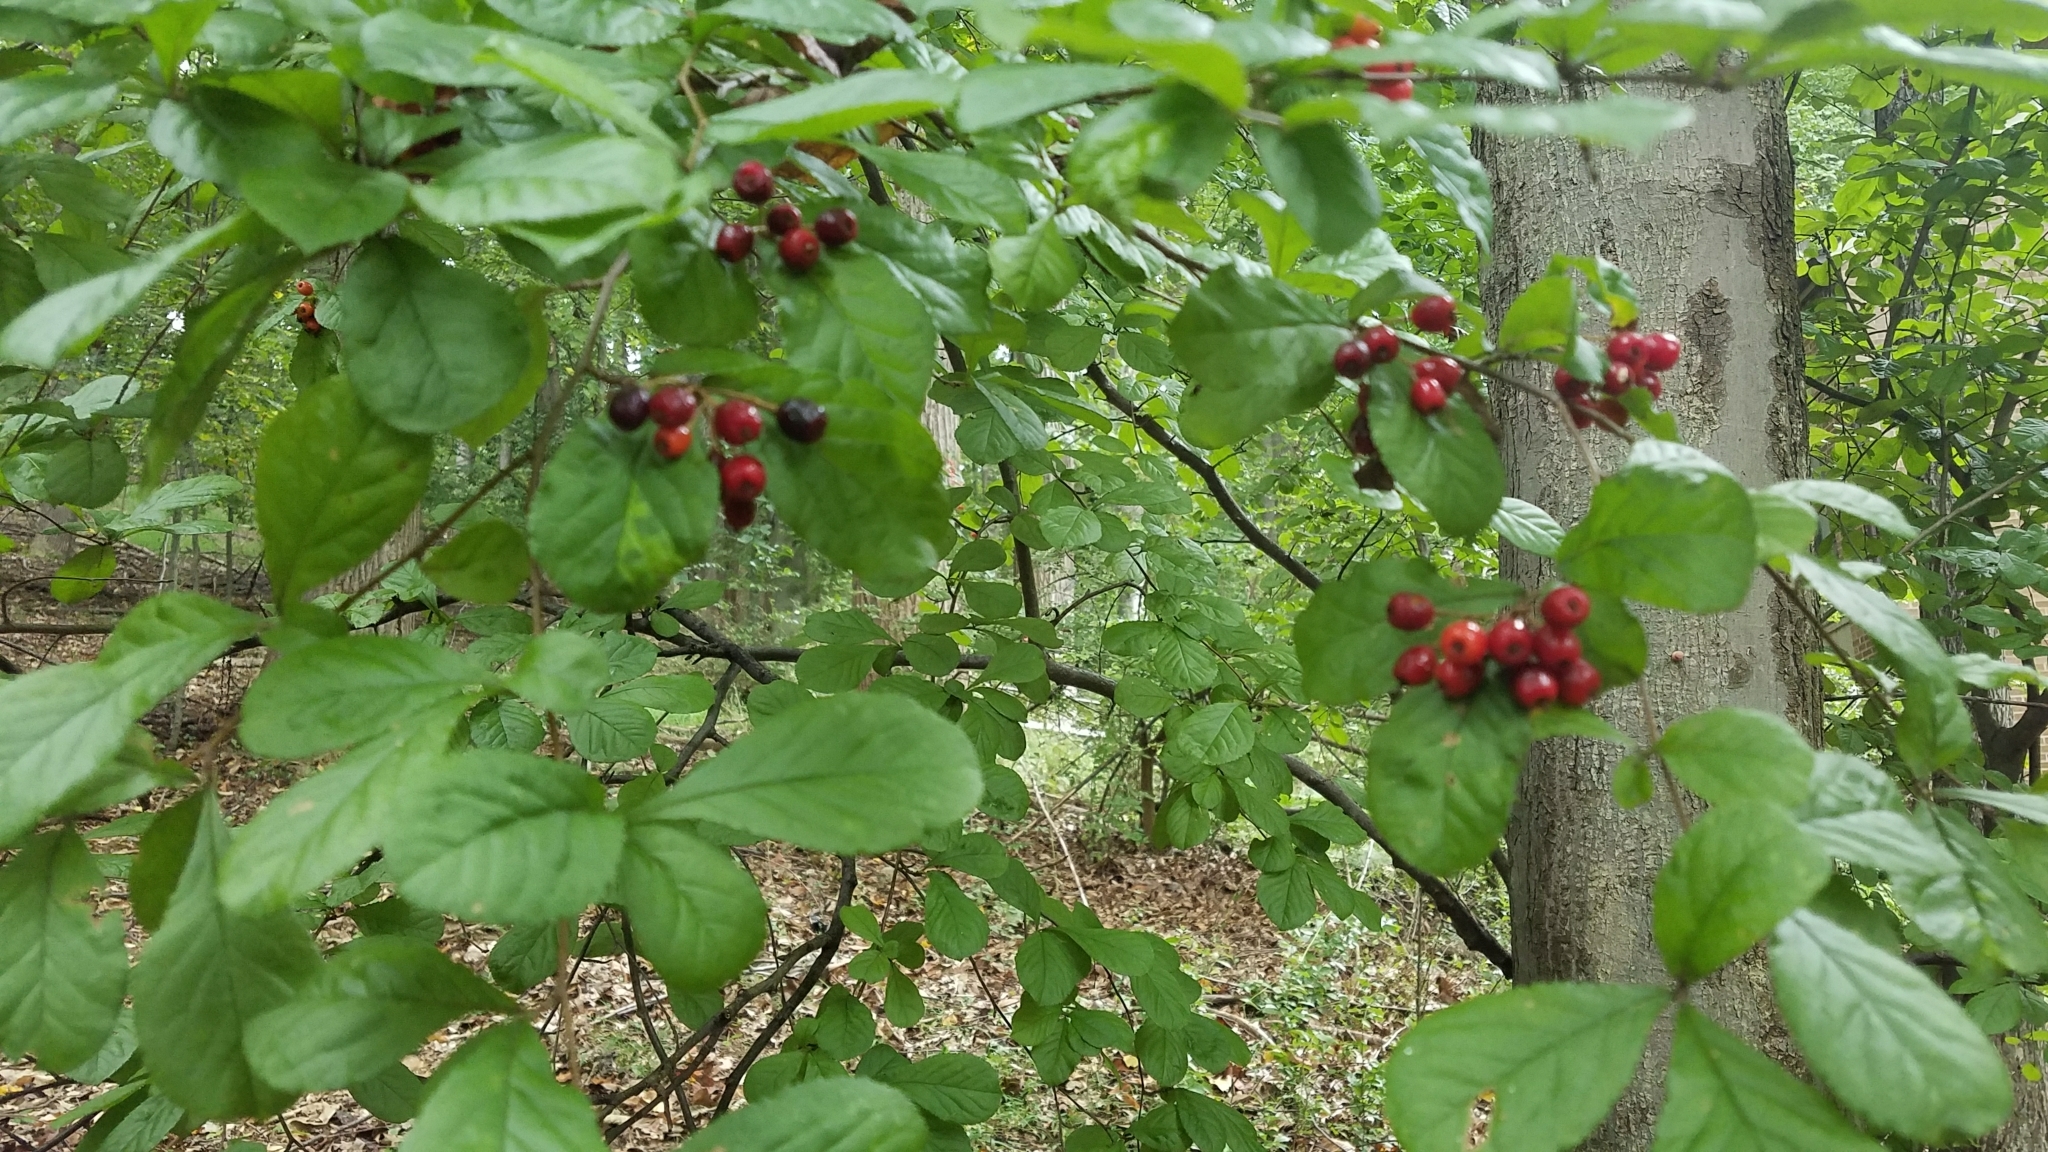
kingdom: Plantae
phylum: Tracheophyta
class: Magnoliopsida
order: Rosales
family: Rosaceae
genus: Pourthiaea
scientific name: Pourthiaea villosa
